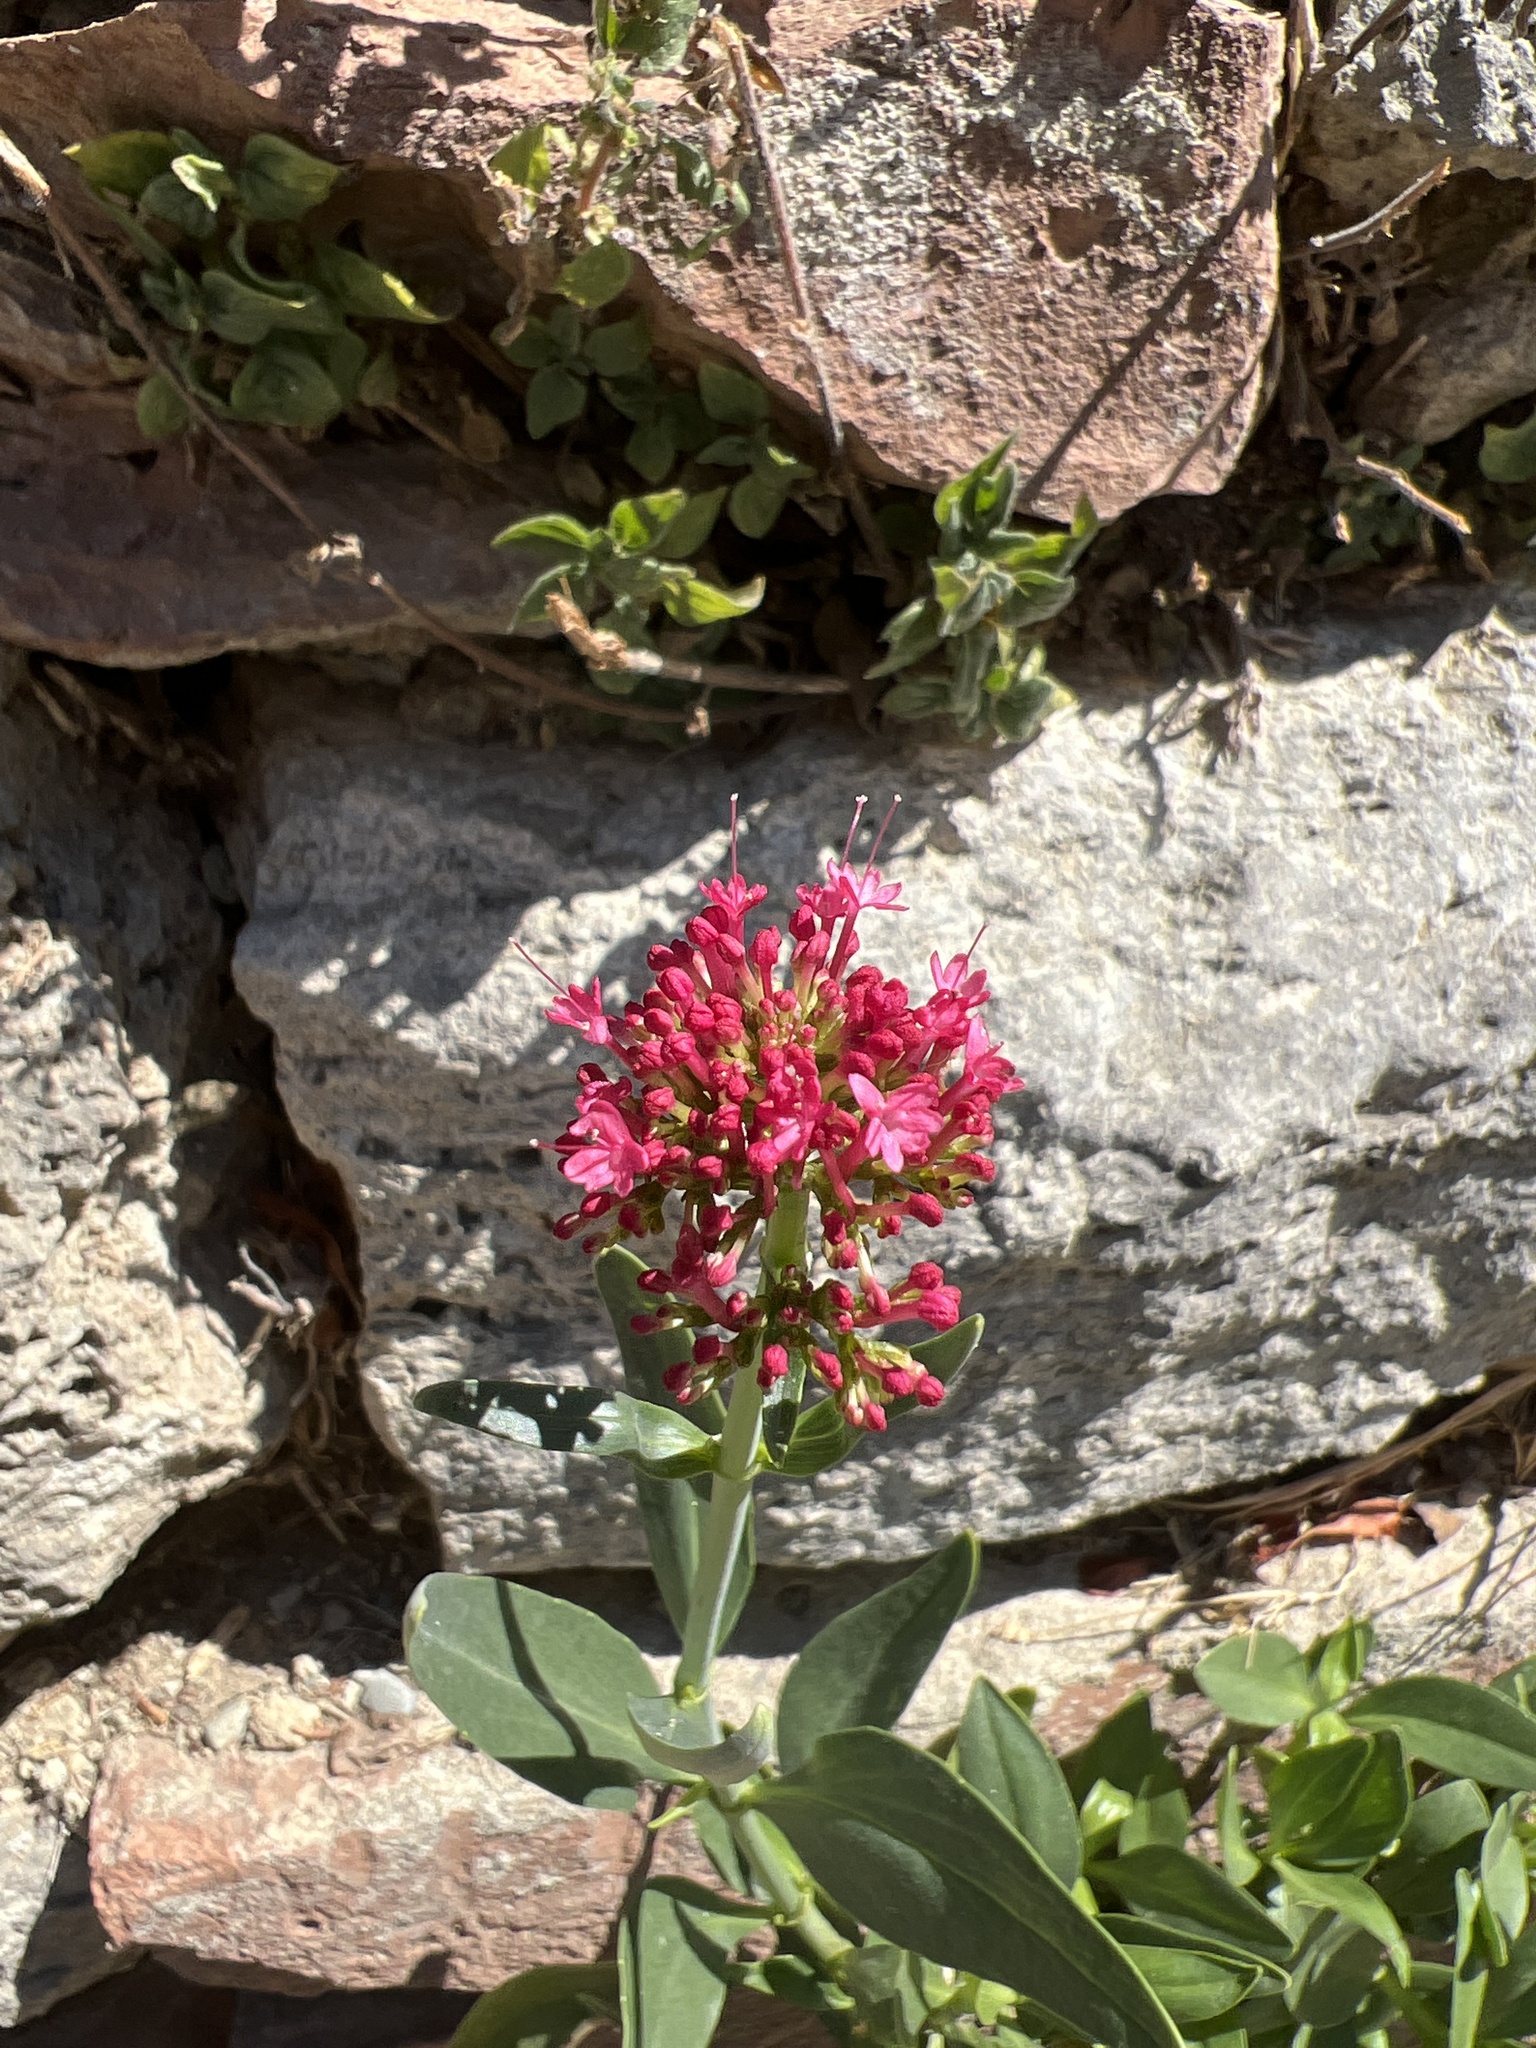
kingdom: Plantae
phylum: Tracheophyta
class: Magnoliopsida
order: Dipsacales
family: Caprifoliaceae
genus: Centranthus
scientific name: Centranthus ruber
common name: Red valerian
